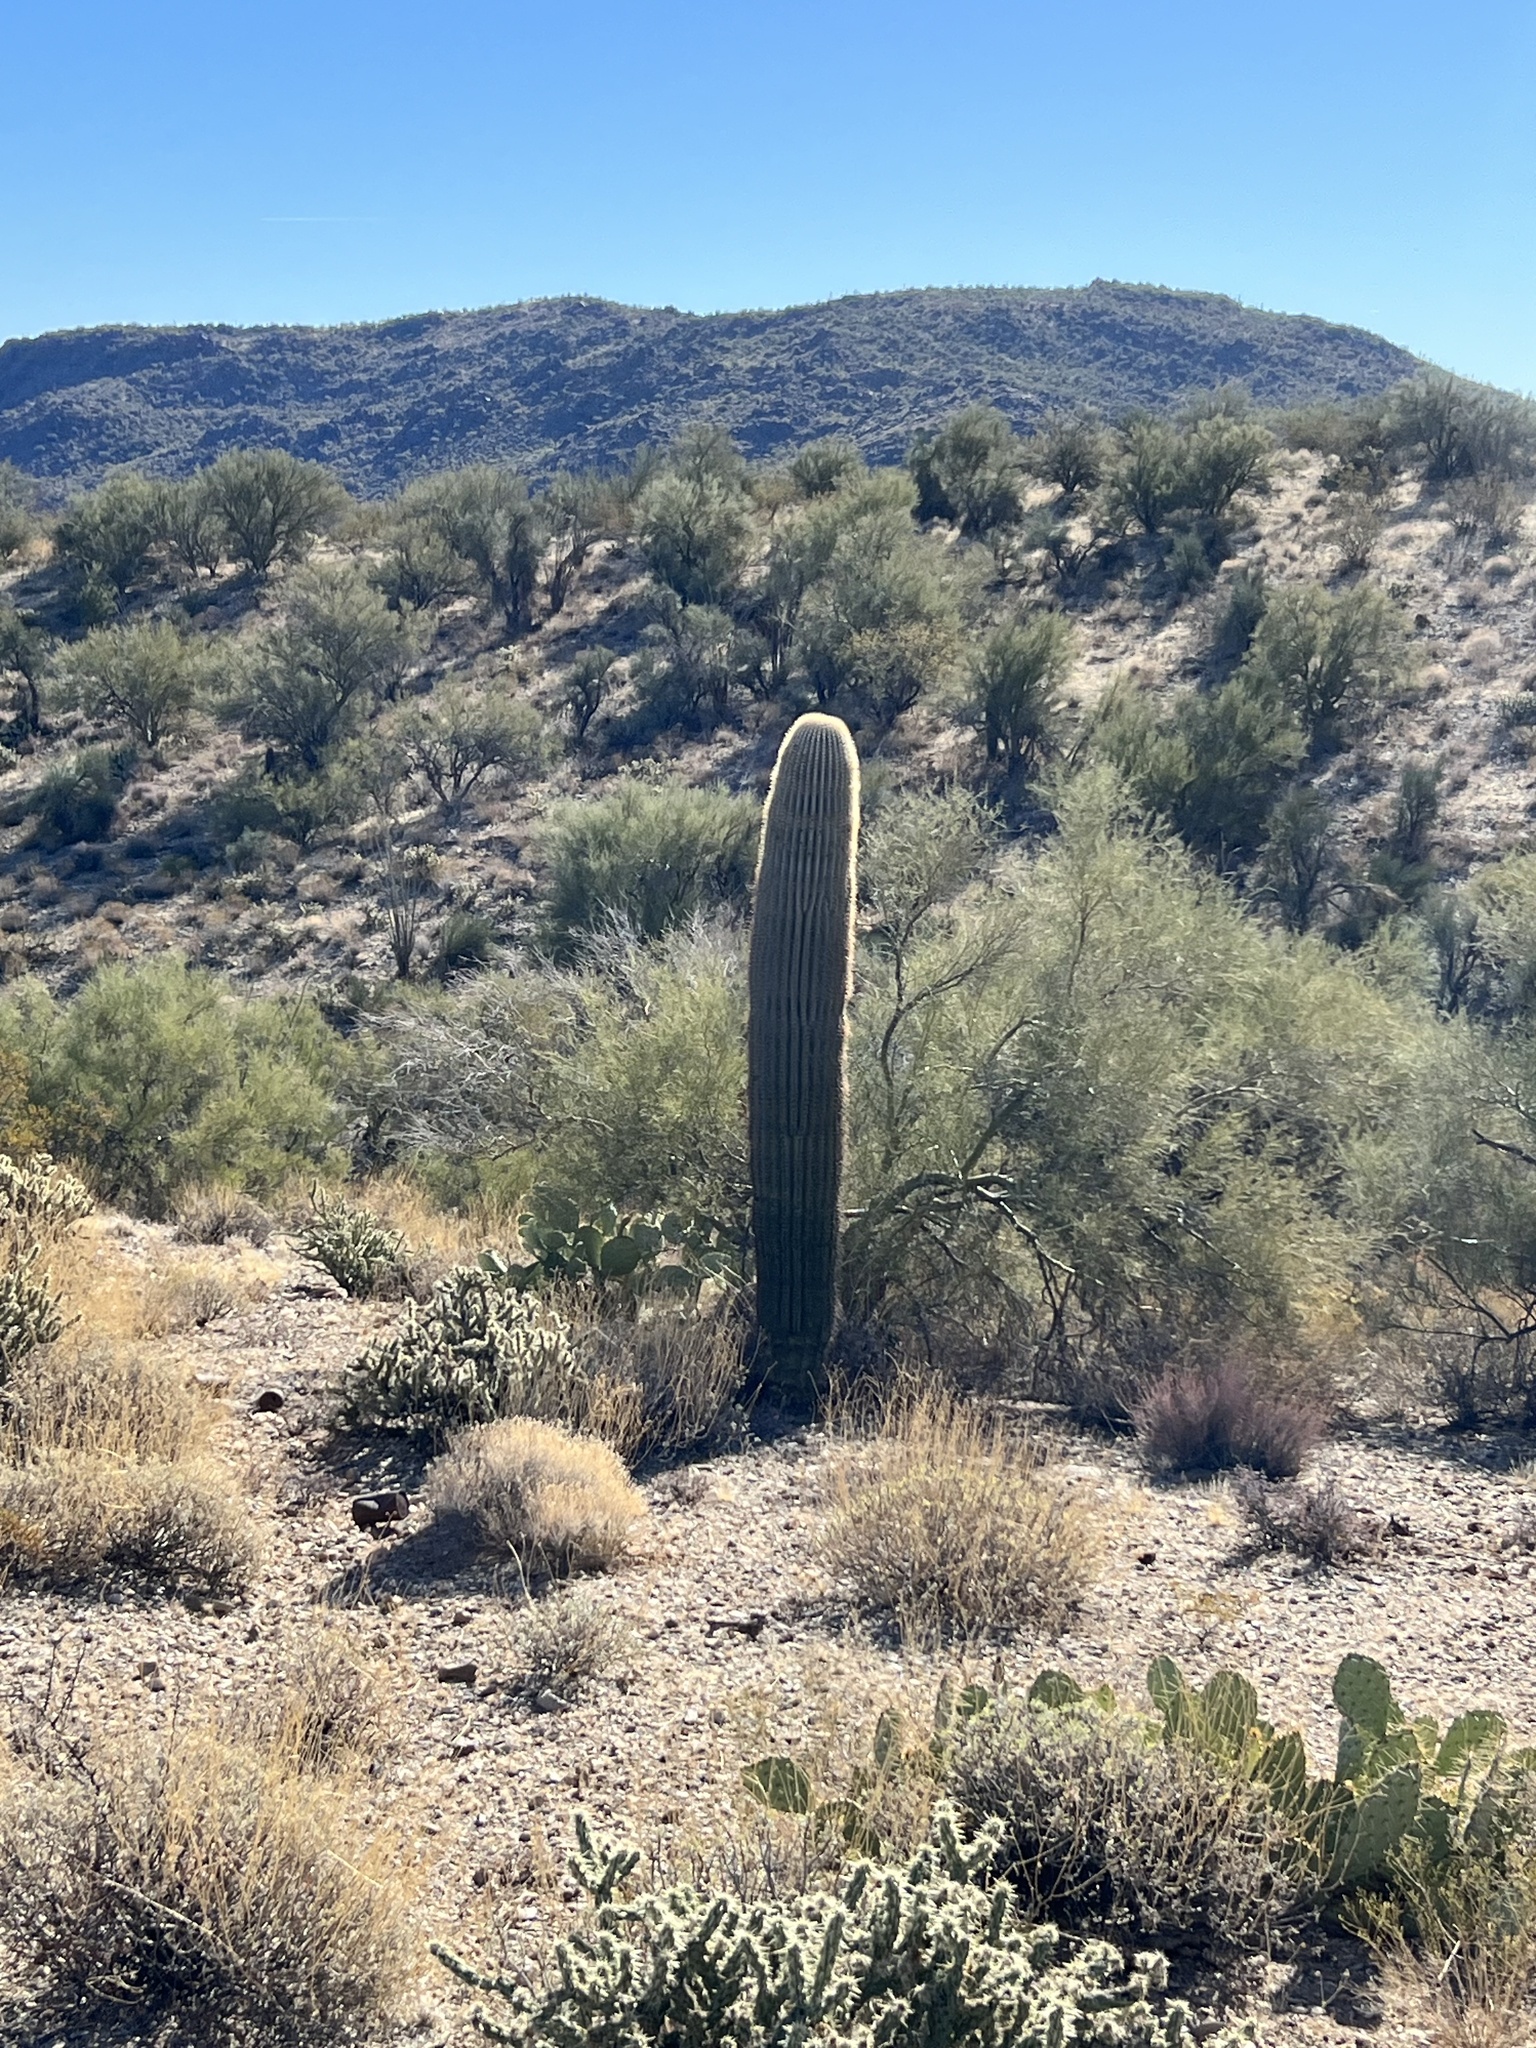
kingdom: Plantae
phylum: Tracheophyta
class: Magnoliopsida
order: Caryophyllales
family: Cactaceae
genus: Carnegiea
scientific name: Carnegiea gigantea
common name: Saguaro
